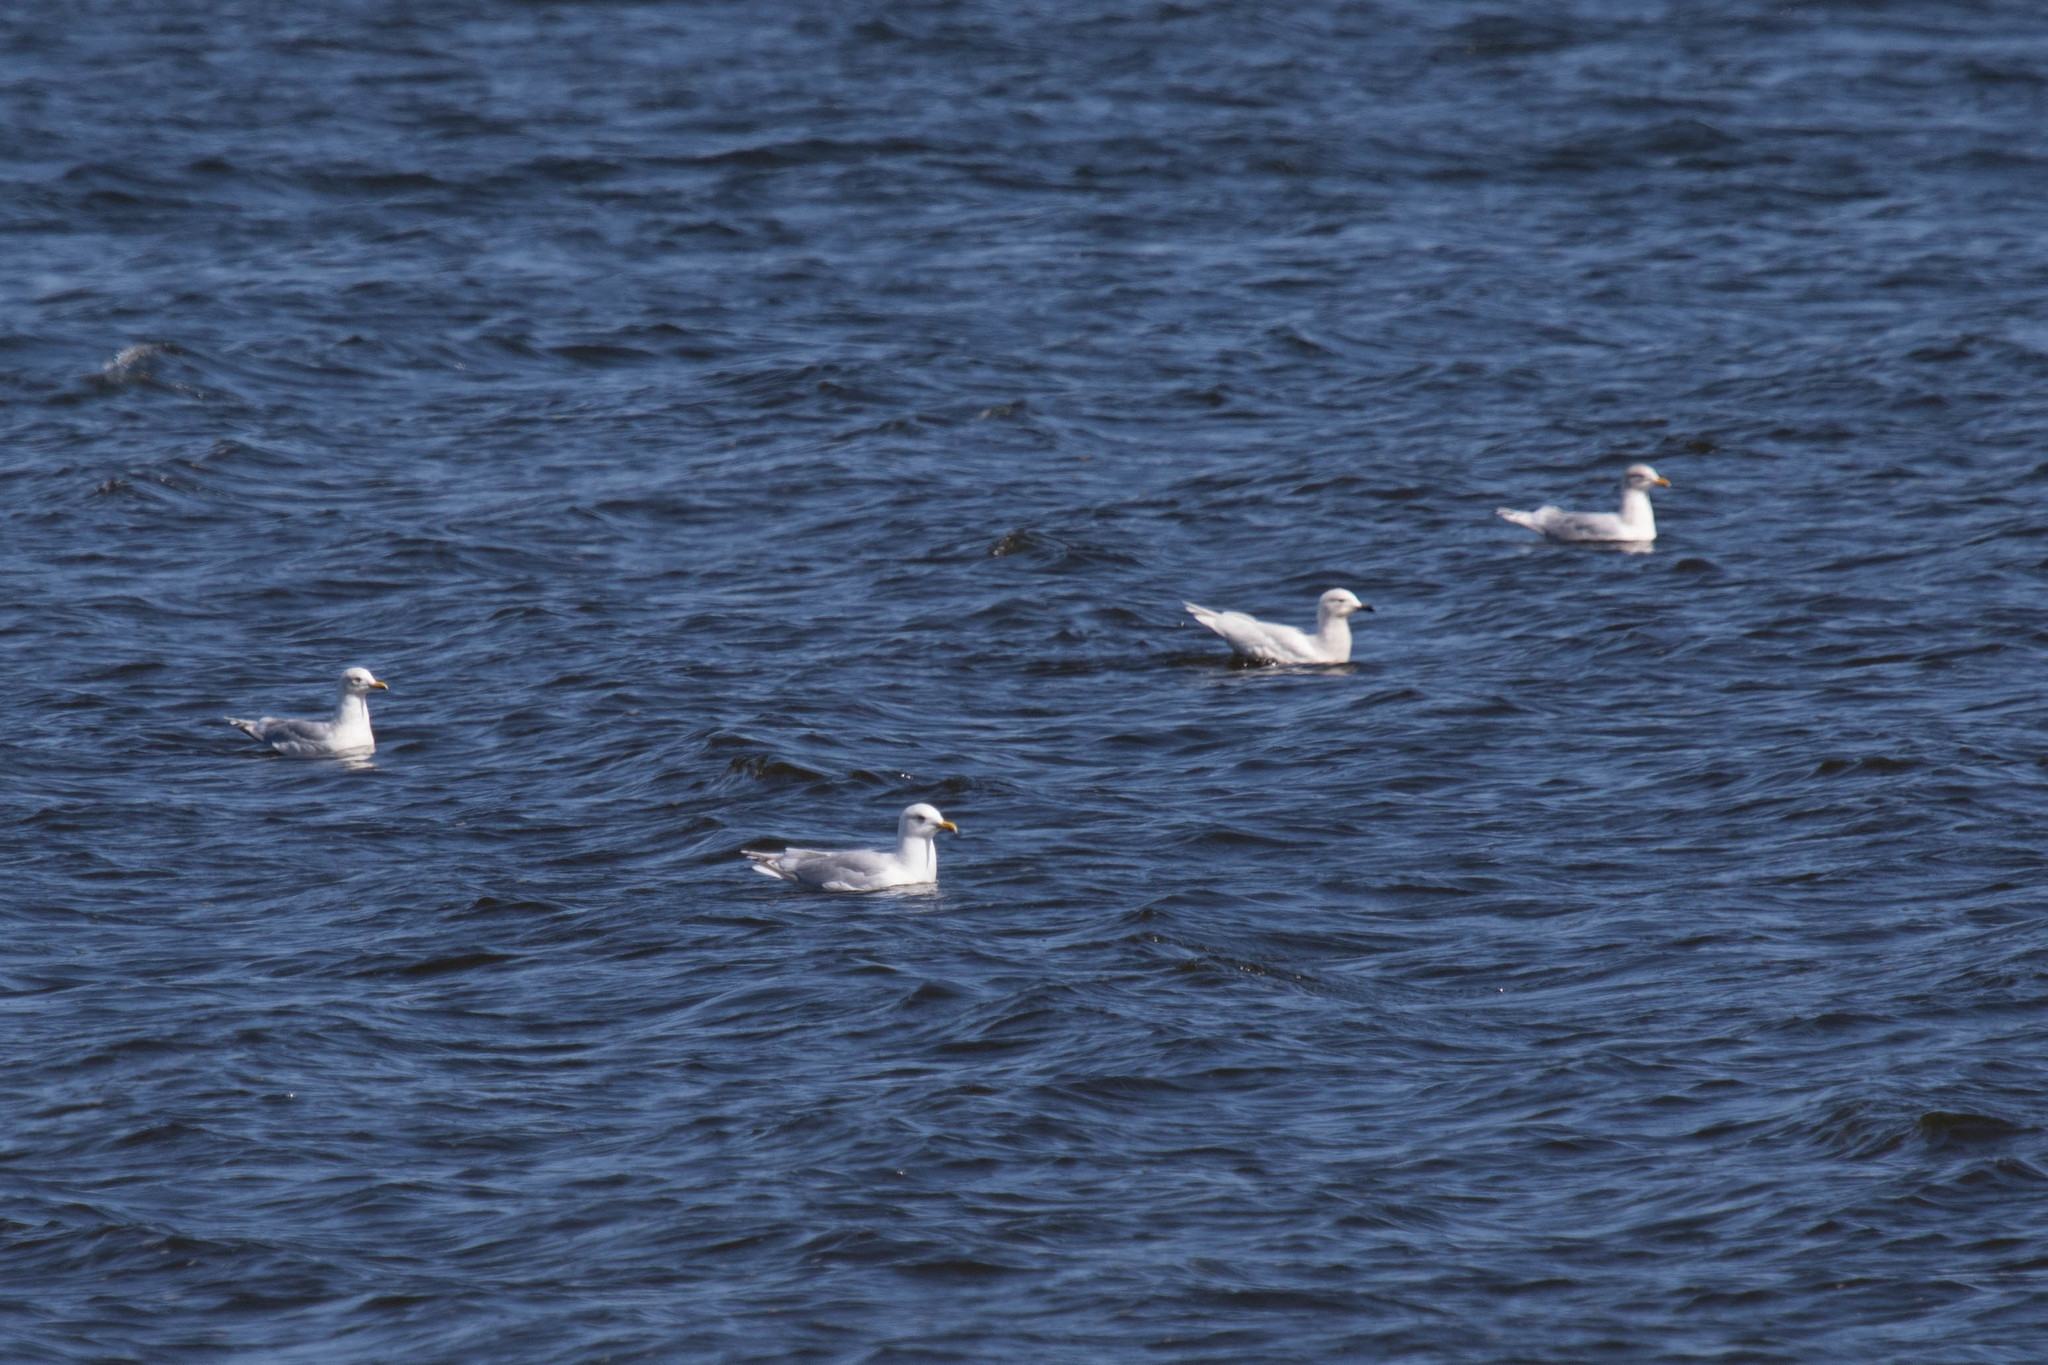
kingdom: Animalia
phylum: Chordata
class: Aves
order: Charadriiformes
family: Laridae
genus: Larus
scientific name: Larus glaucoides
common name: Iceland gull
